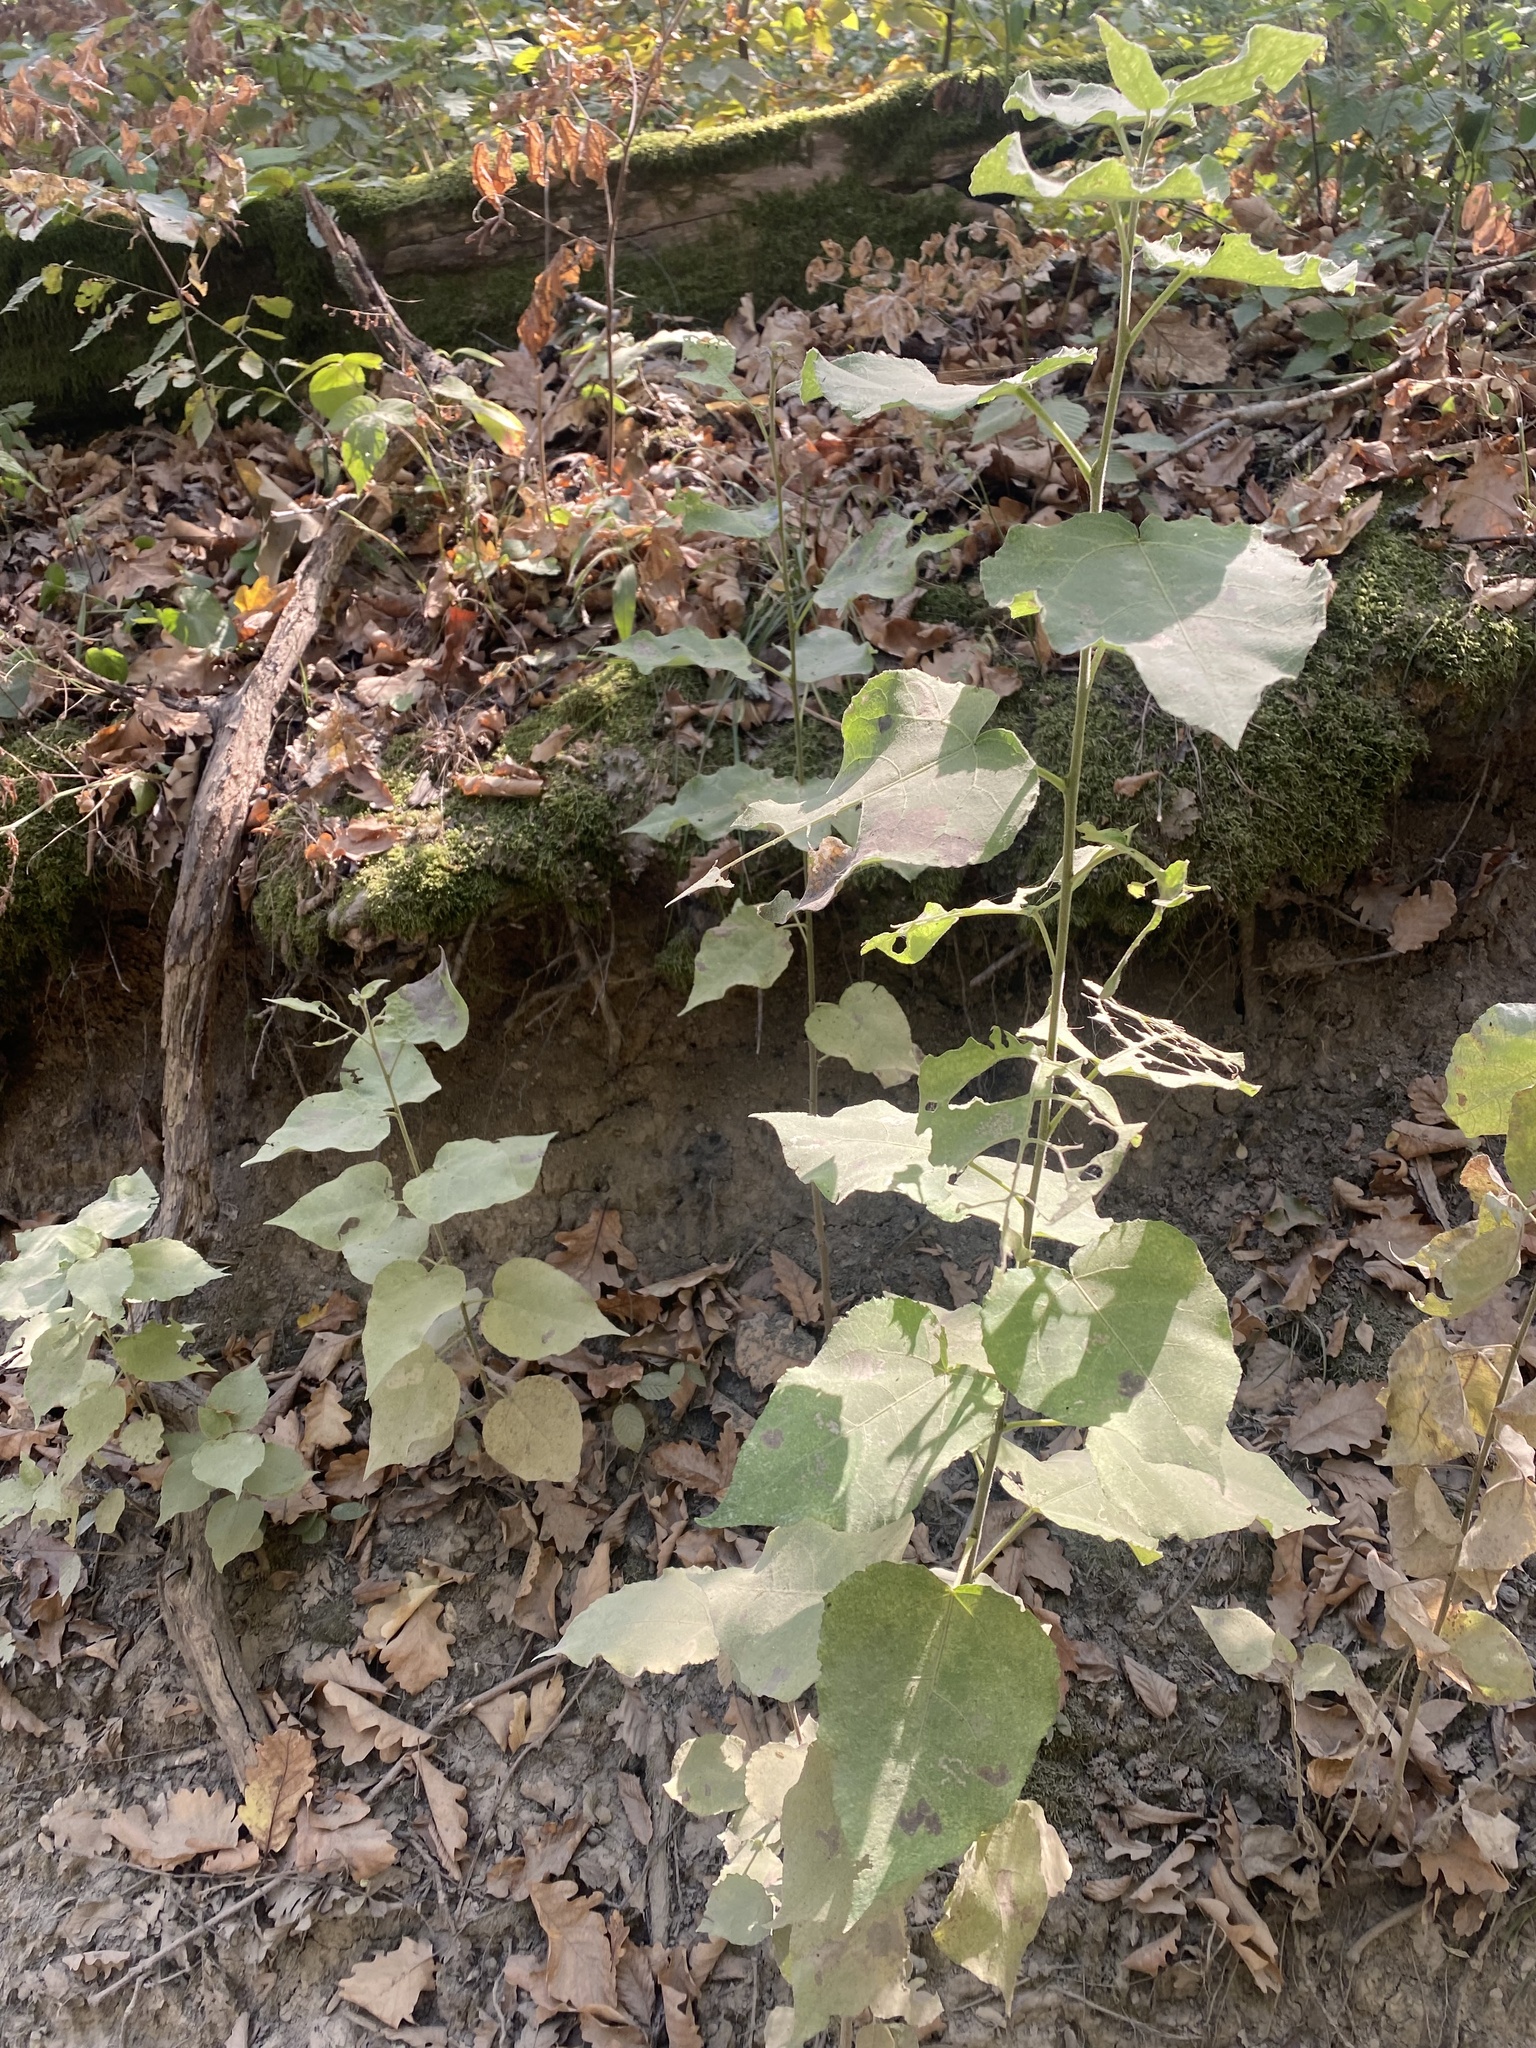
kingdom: Plantae
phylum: Tracheophyta
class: Magnoliopsida
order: Malpighiales
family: Salicaceae
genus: Populus
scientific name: Populus tremula
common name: European aspen
